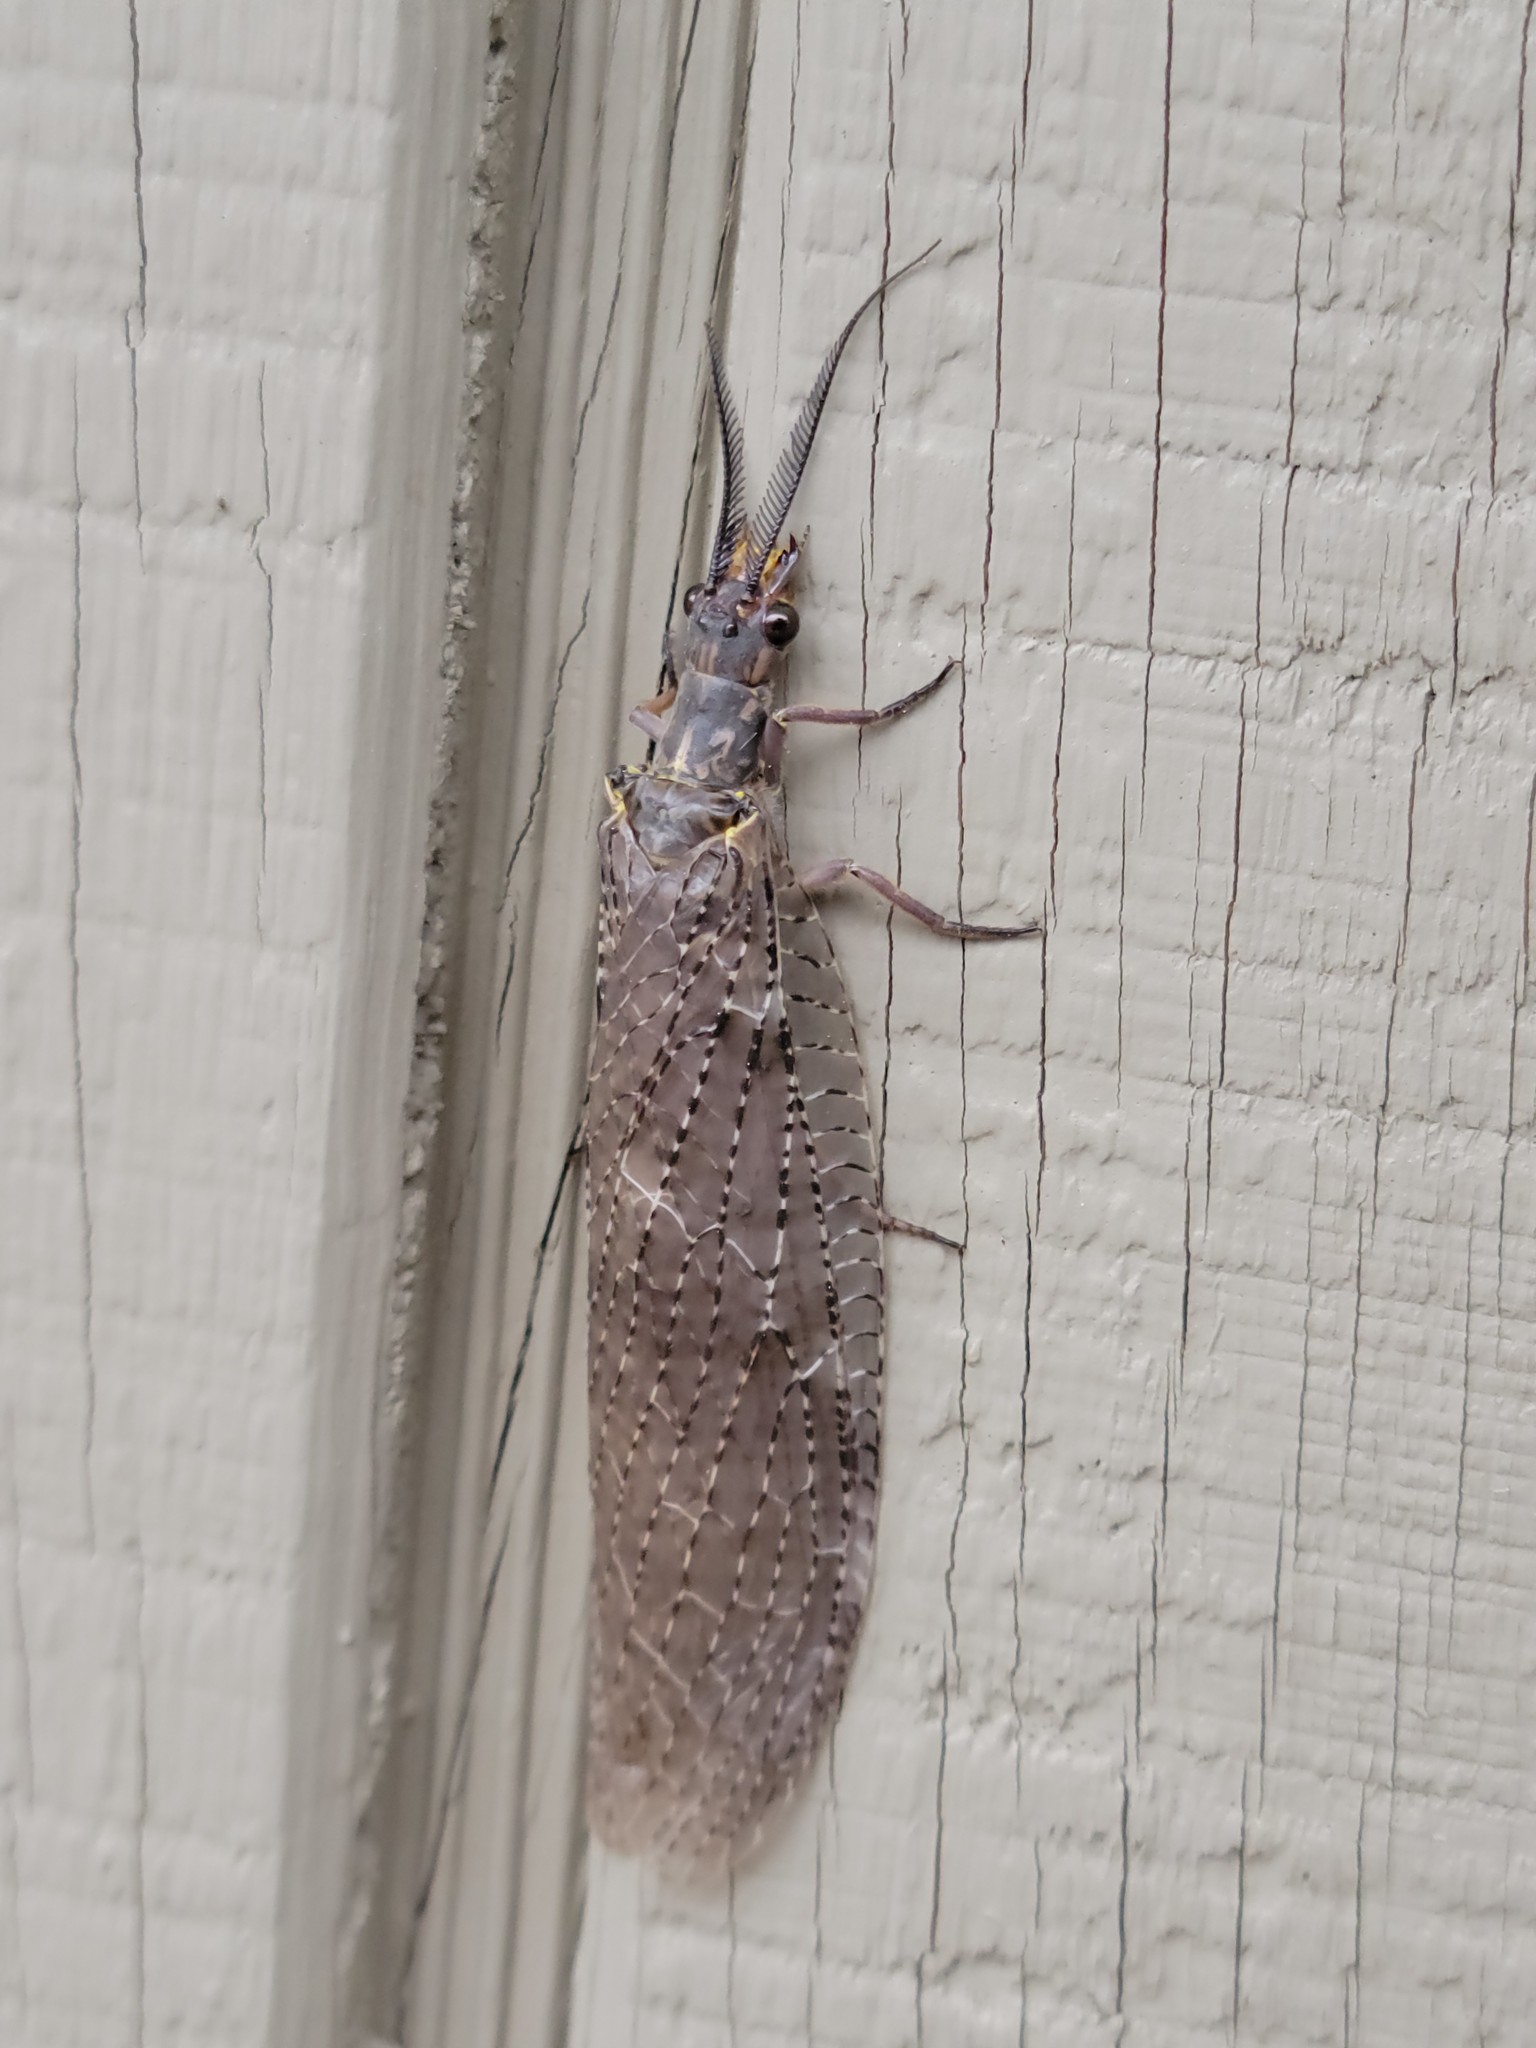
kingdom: Animalia
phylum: Arthropoda
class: Insecta
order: Megaloptera
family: Corydalidae
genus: Chauliodes
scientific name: Chauliodes pectinicornis
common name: Summer fishfly
